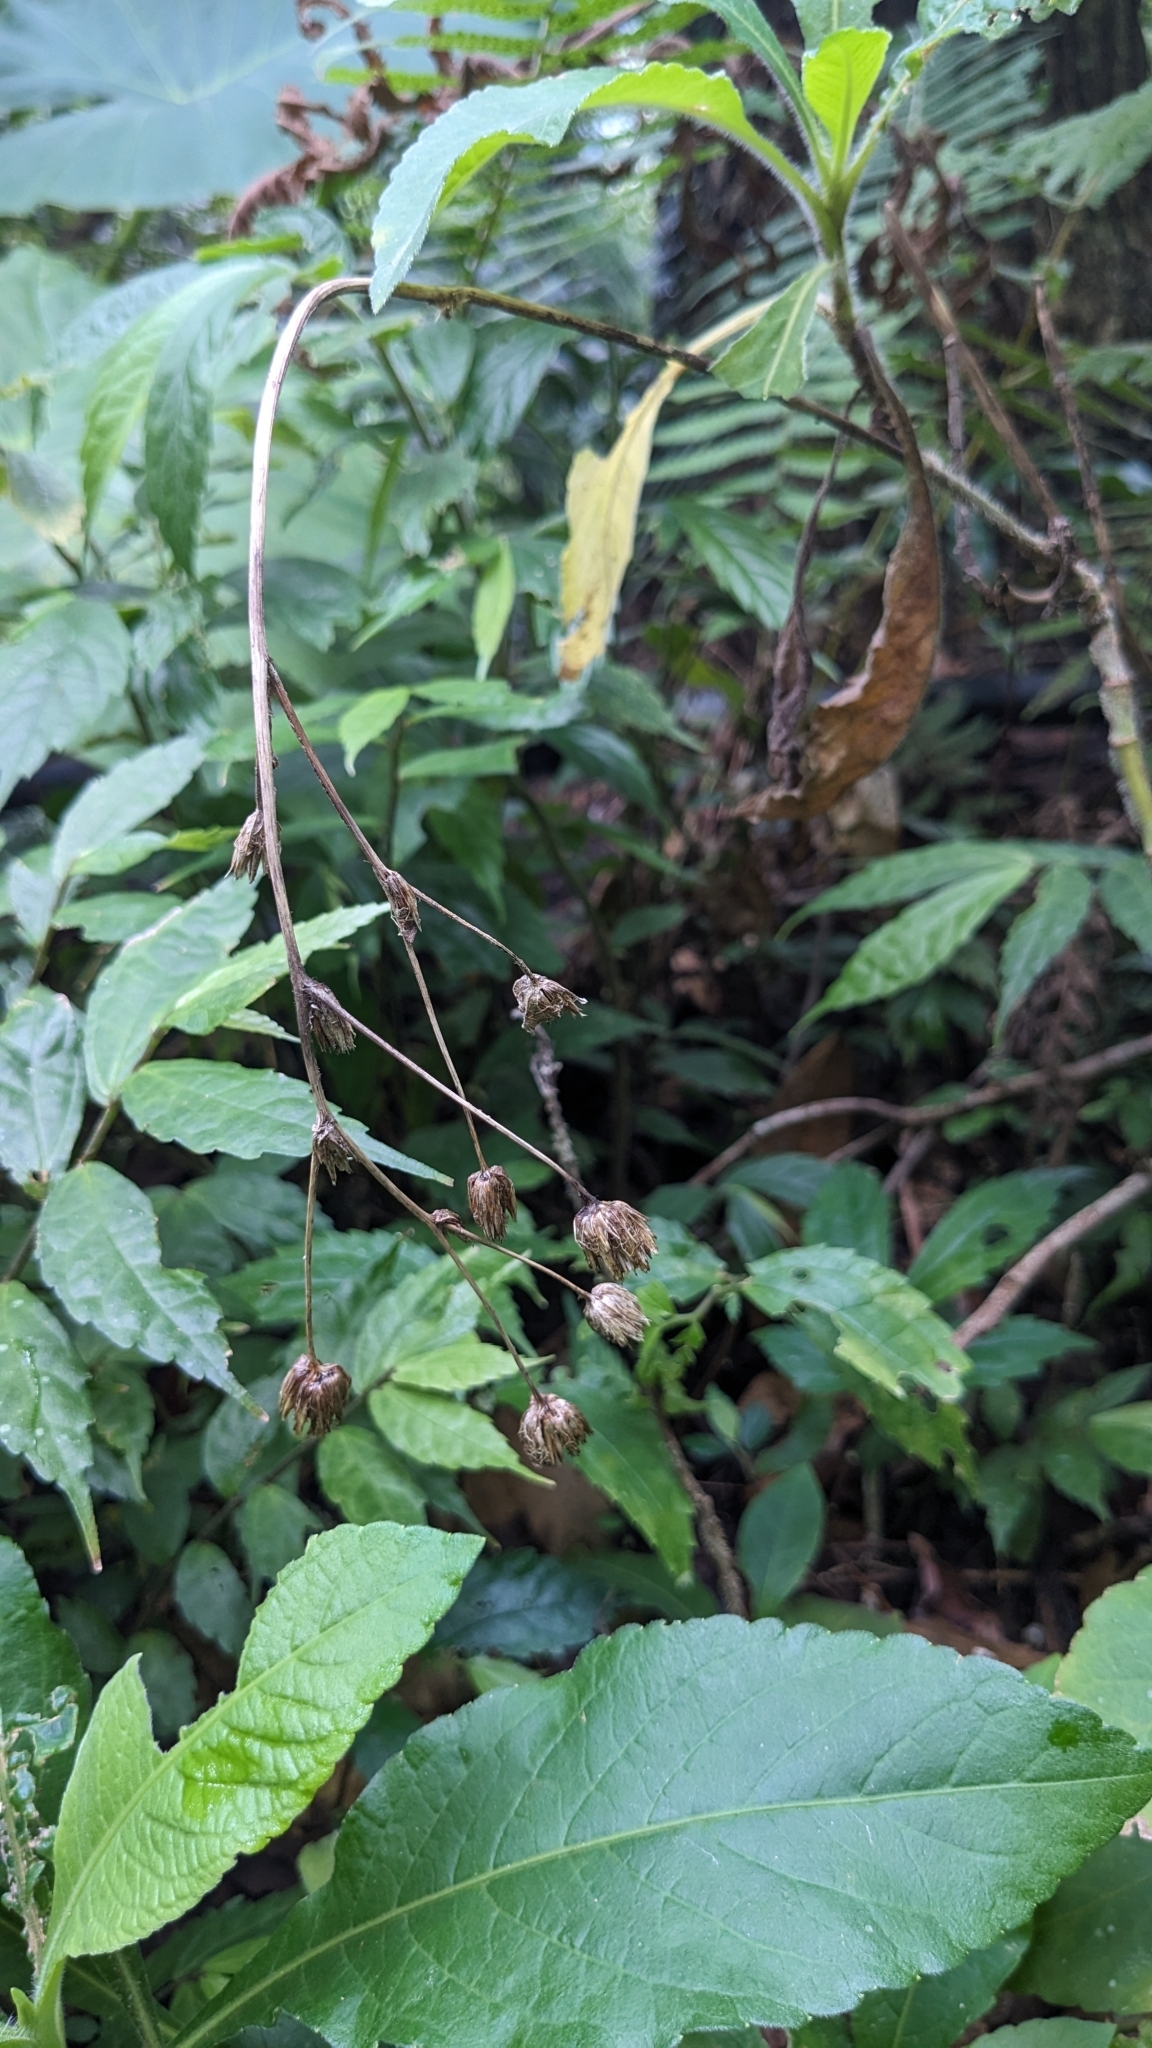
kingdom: Plantae
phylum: Tracheophyta
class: Magnoliopsida
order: Asterales
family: Asteraceae
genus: Elephantopus
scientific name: Elephantopus mollis
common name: Soft elephantsfoot
